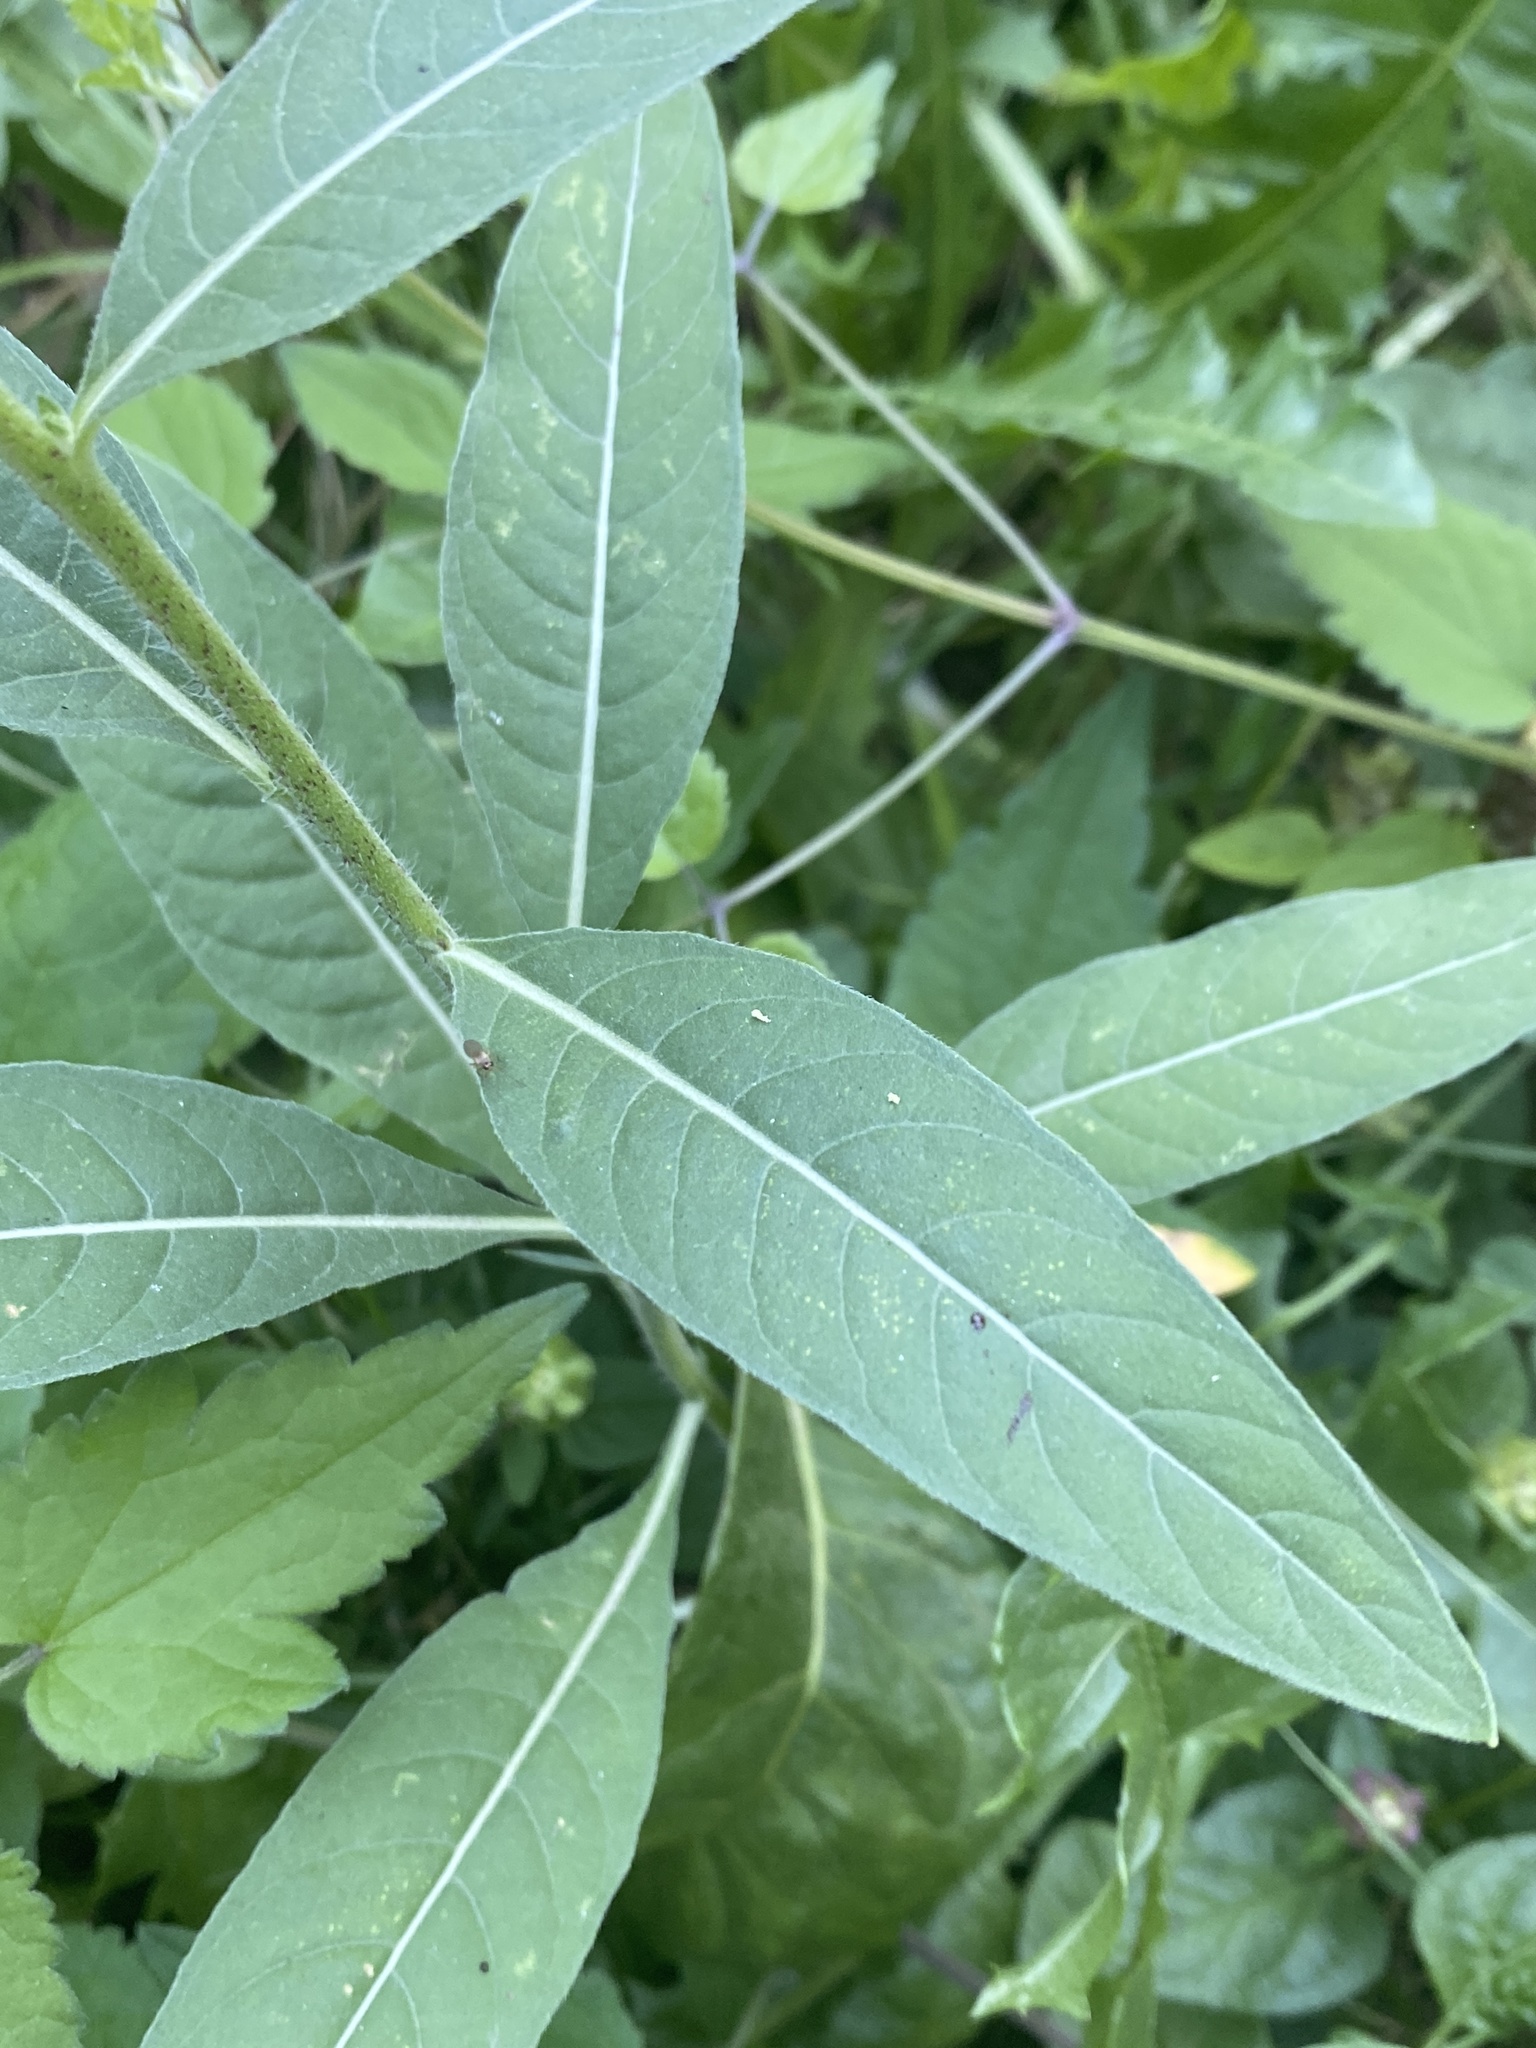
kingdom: Plantae
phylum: Tracheophyta
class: Magnoliopsida
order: Myrtales
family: Onagraceae
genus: Oenothera
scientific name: Oenothera biennis
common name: Common evening-primrose
